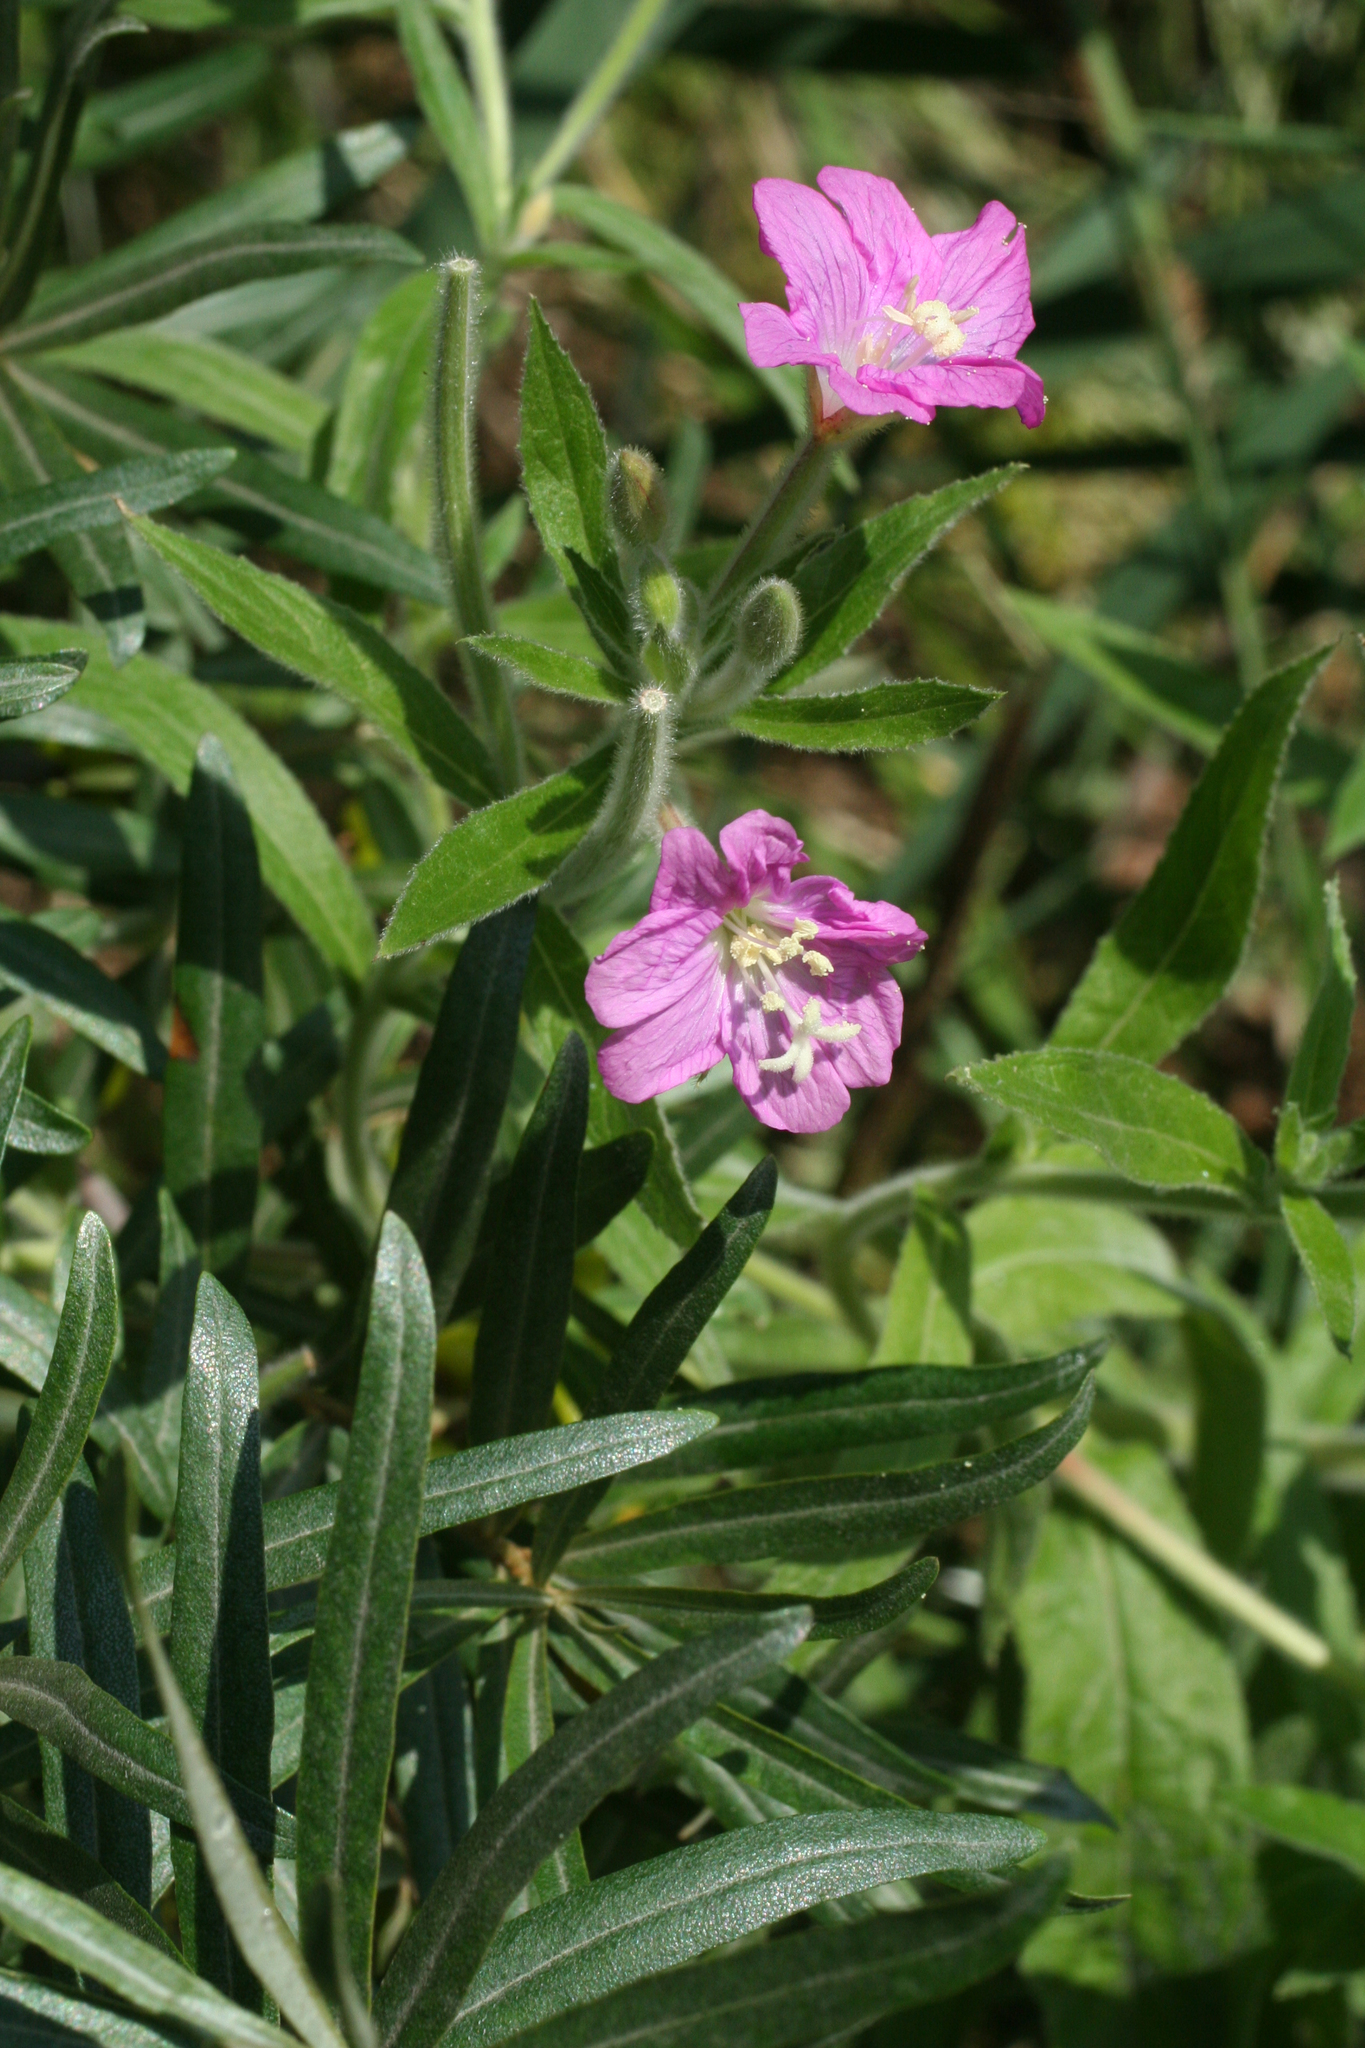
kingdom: Plantae
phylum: Tracheophyta
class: Magnoliopsida
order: Myrtales
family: Onagraceae
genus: Epilobium
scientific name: Epilobium hirsutum
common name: Great willowherb
